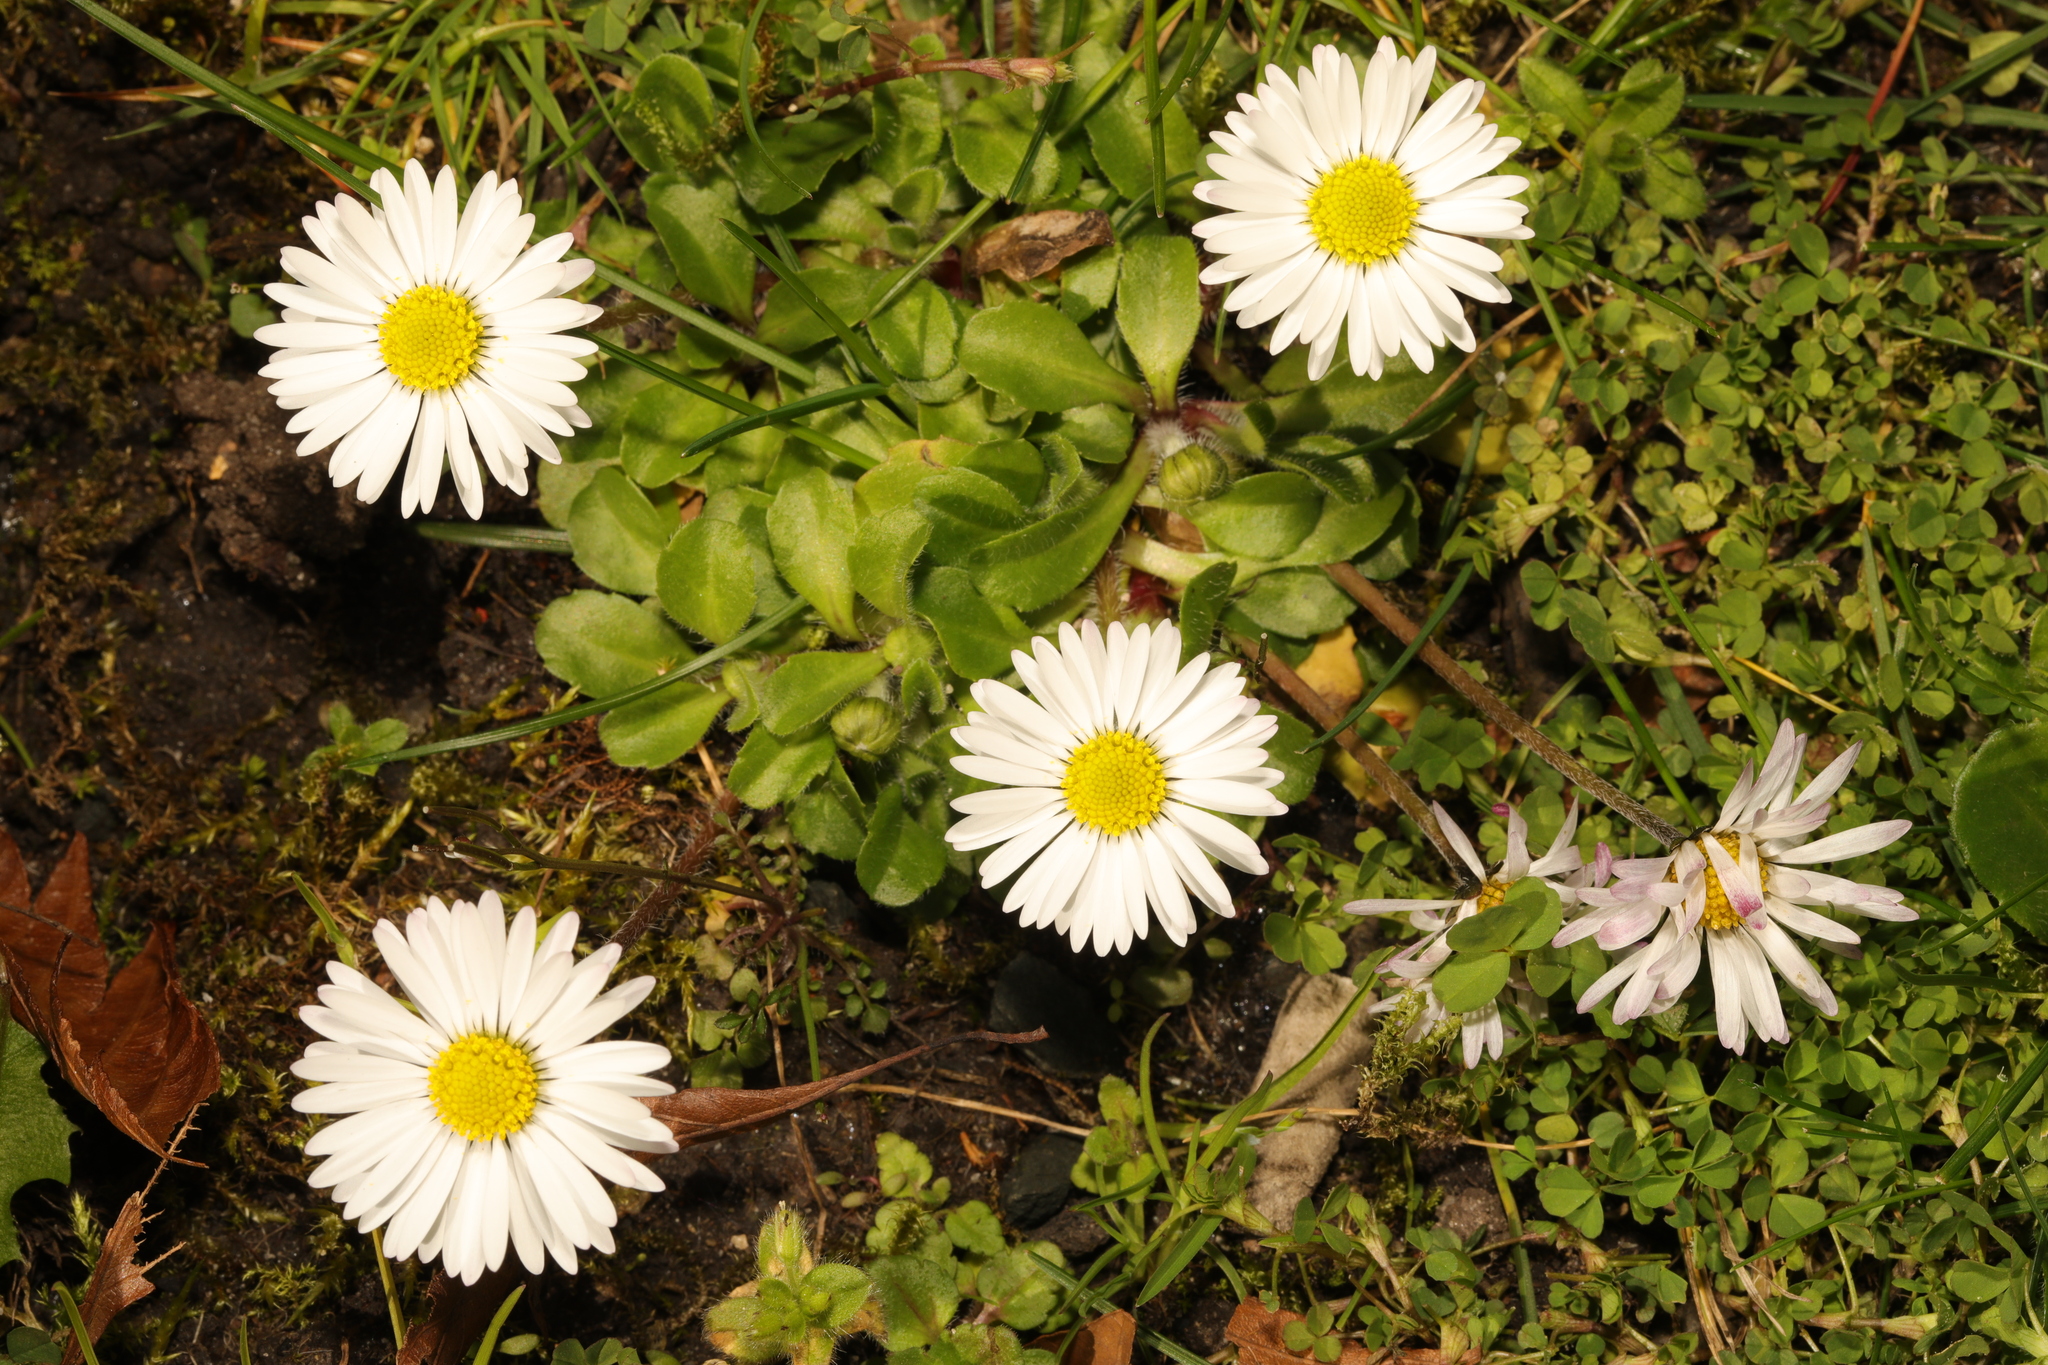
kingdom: Plantae
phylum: Tracheophyta
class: Magnoliopsida
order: Asterales
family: Asteraceae
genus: Bellis
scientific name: Bellis perennis
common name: Lawndaisy
